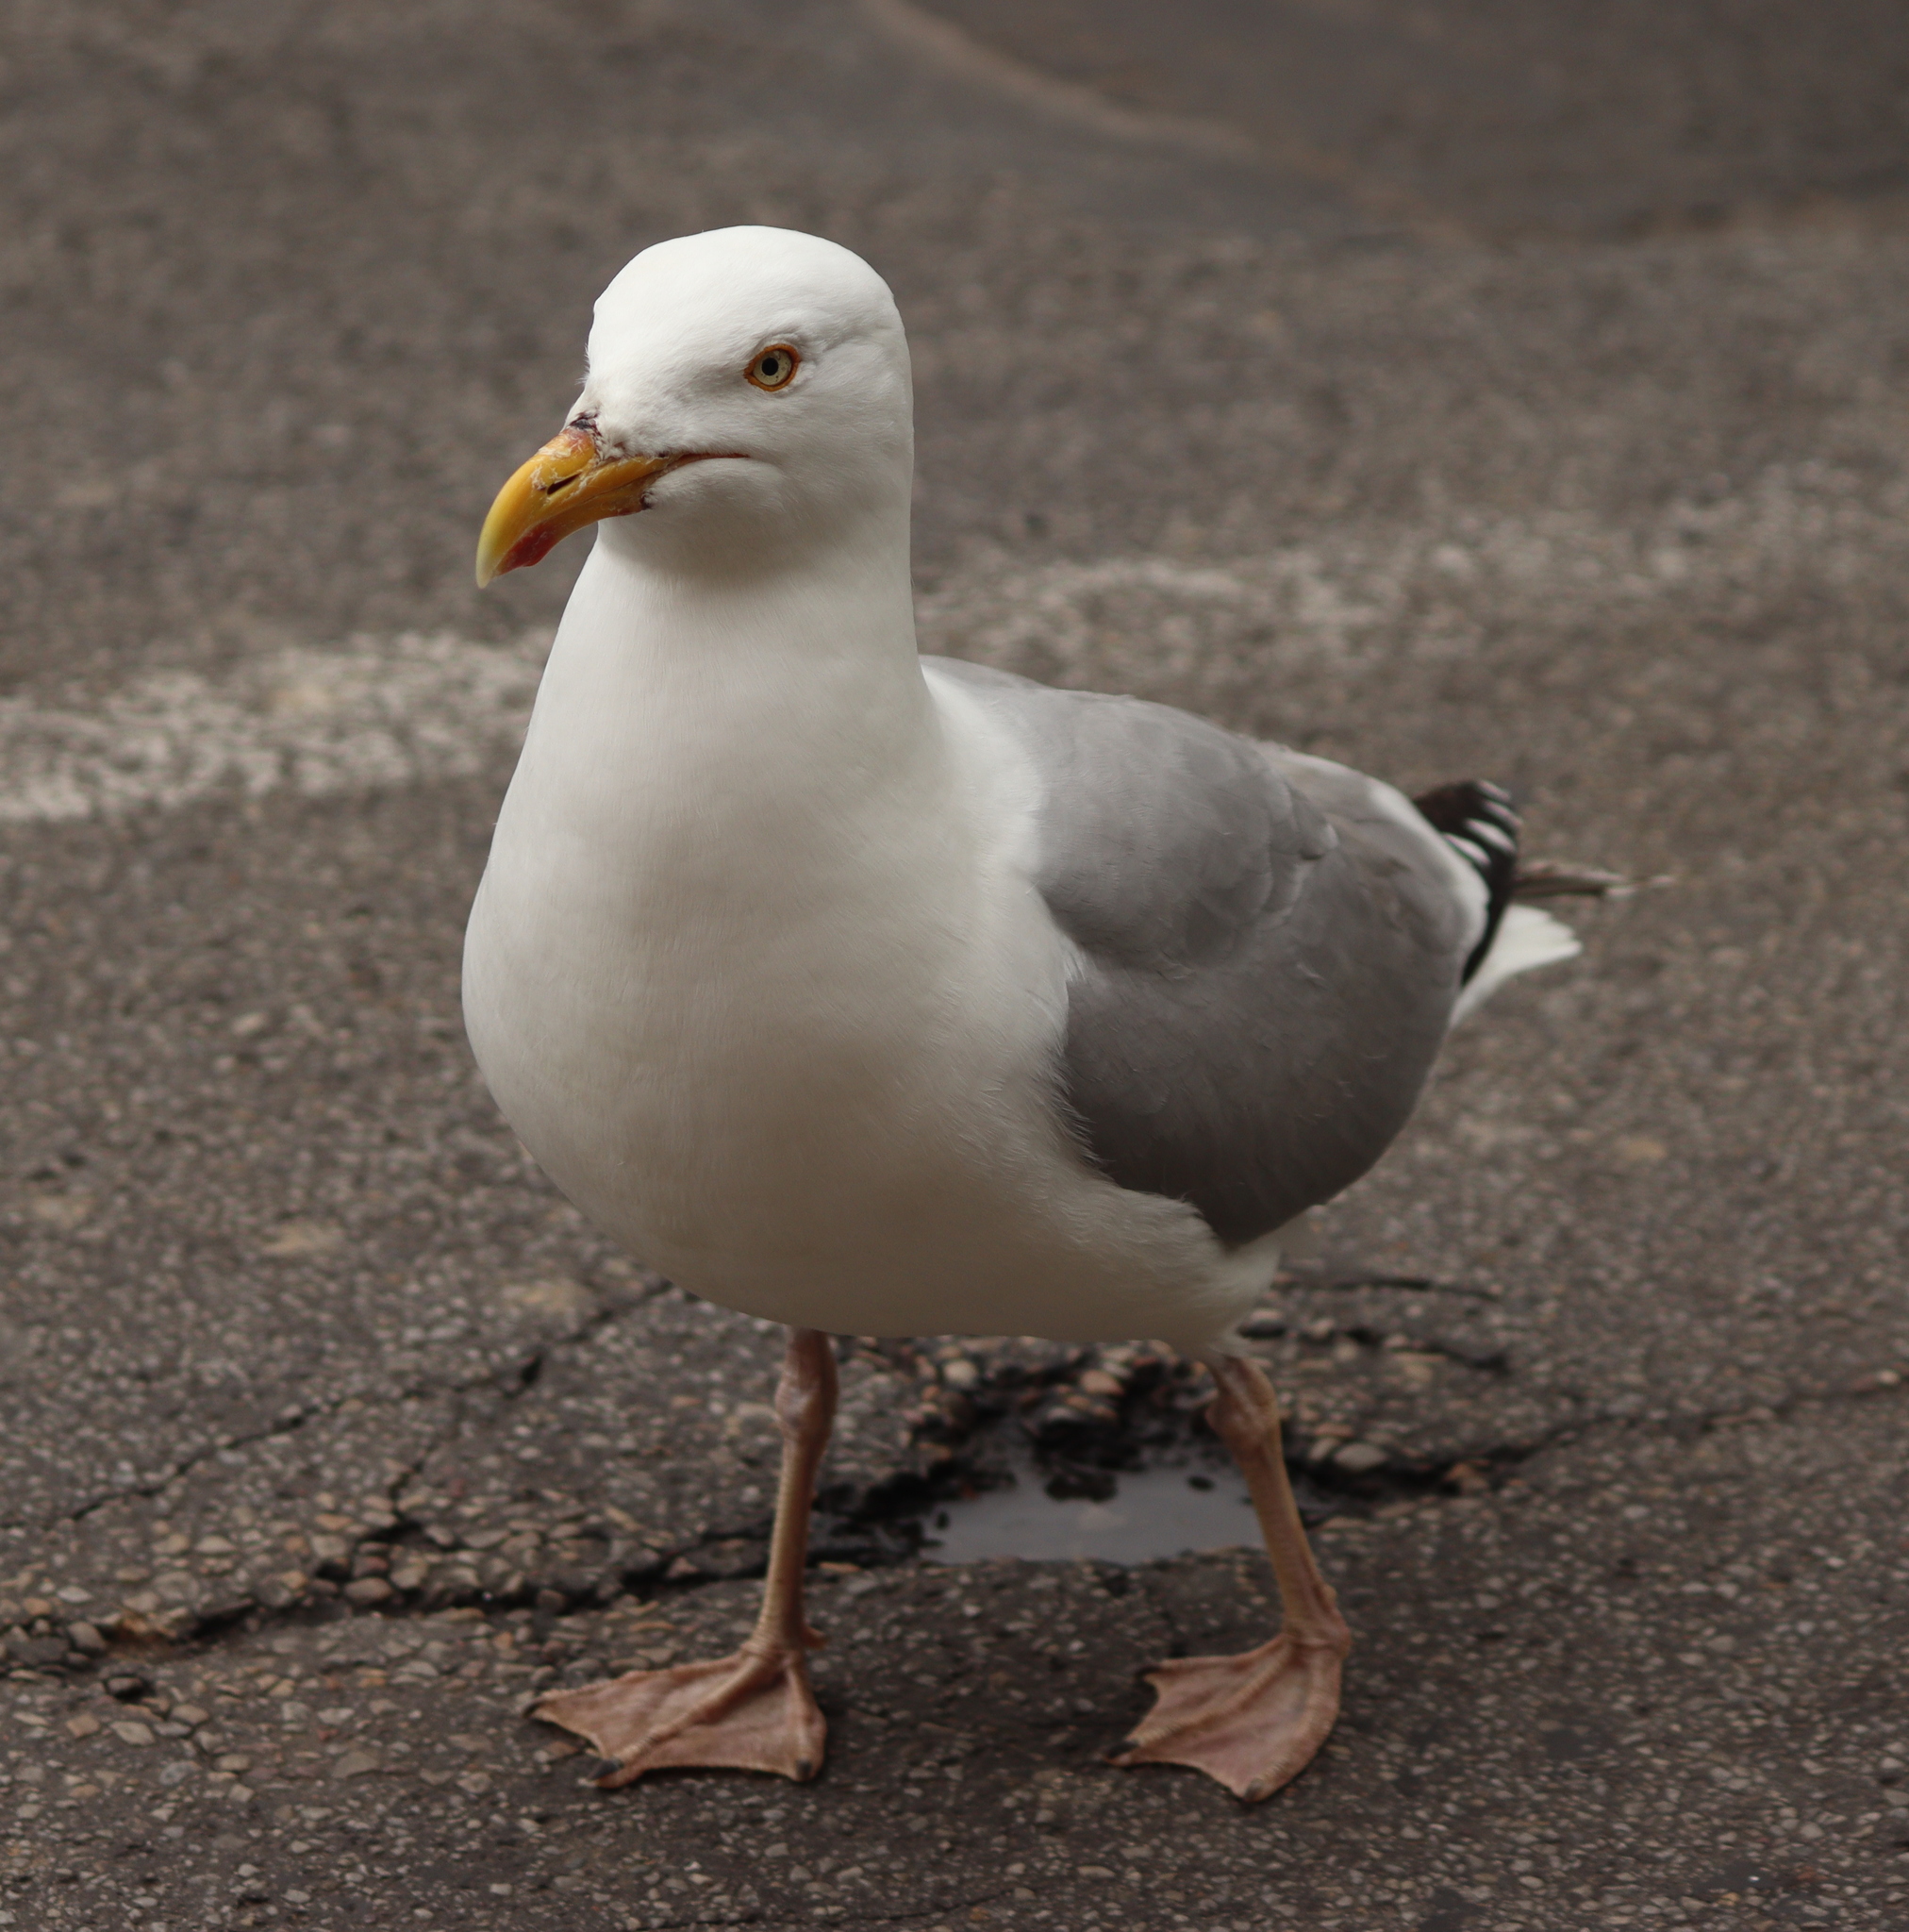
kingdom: Animalia
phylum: Chordata
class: Aves
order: Charadriiformes
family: Laridae
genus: Larus
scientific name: Larus argentatus
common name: Herring gull
